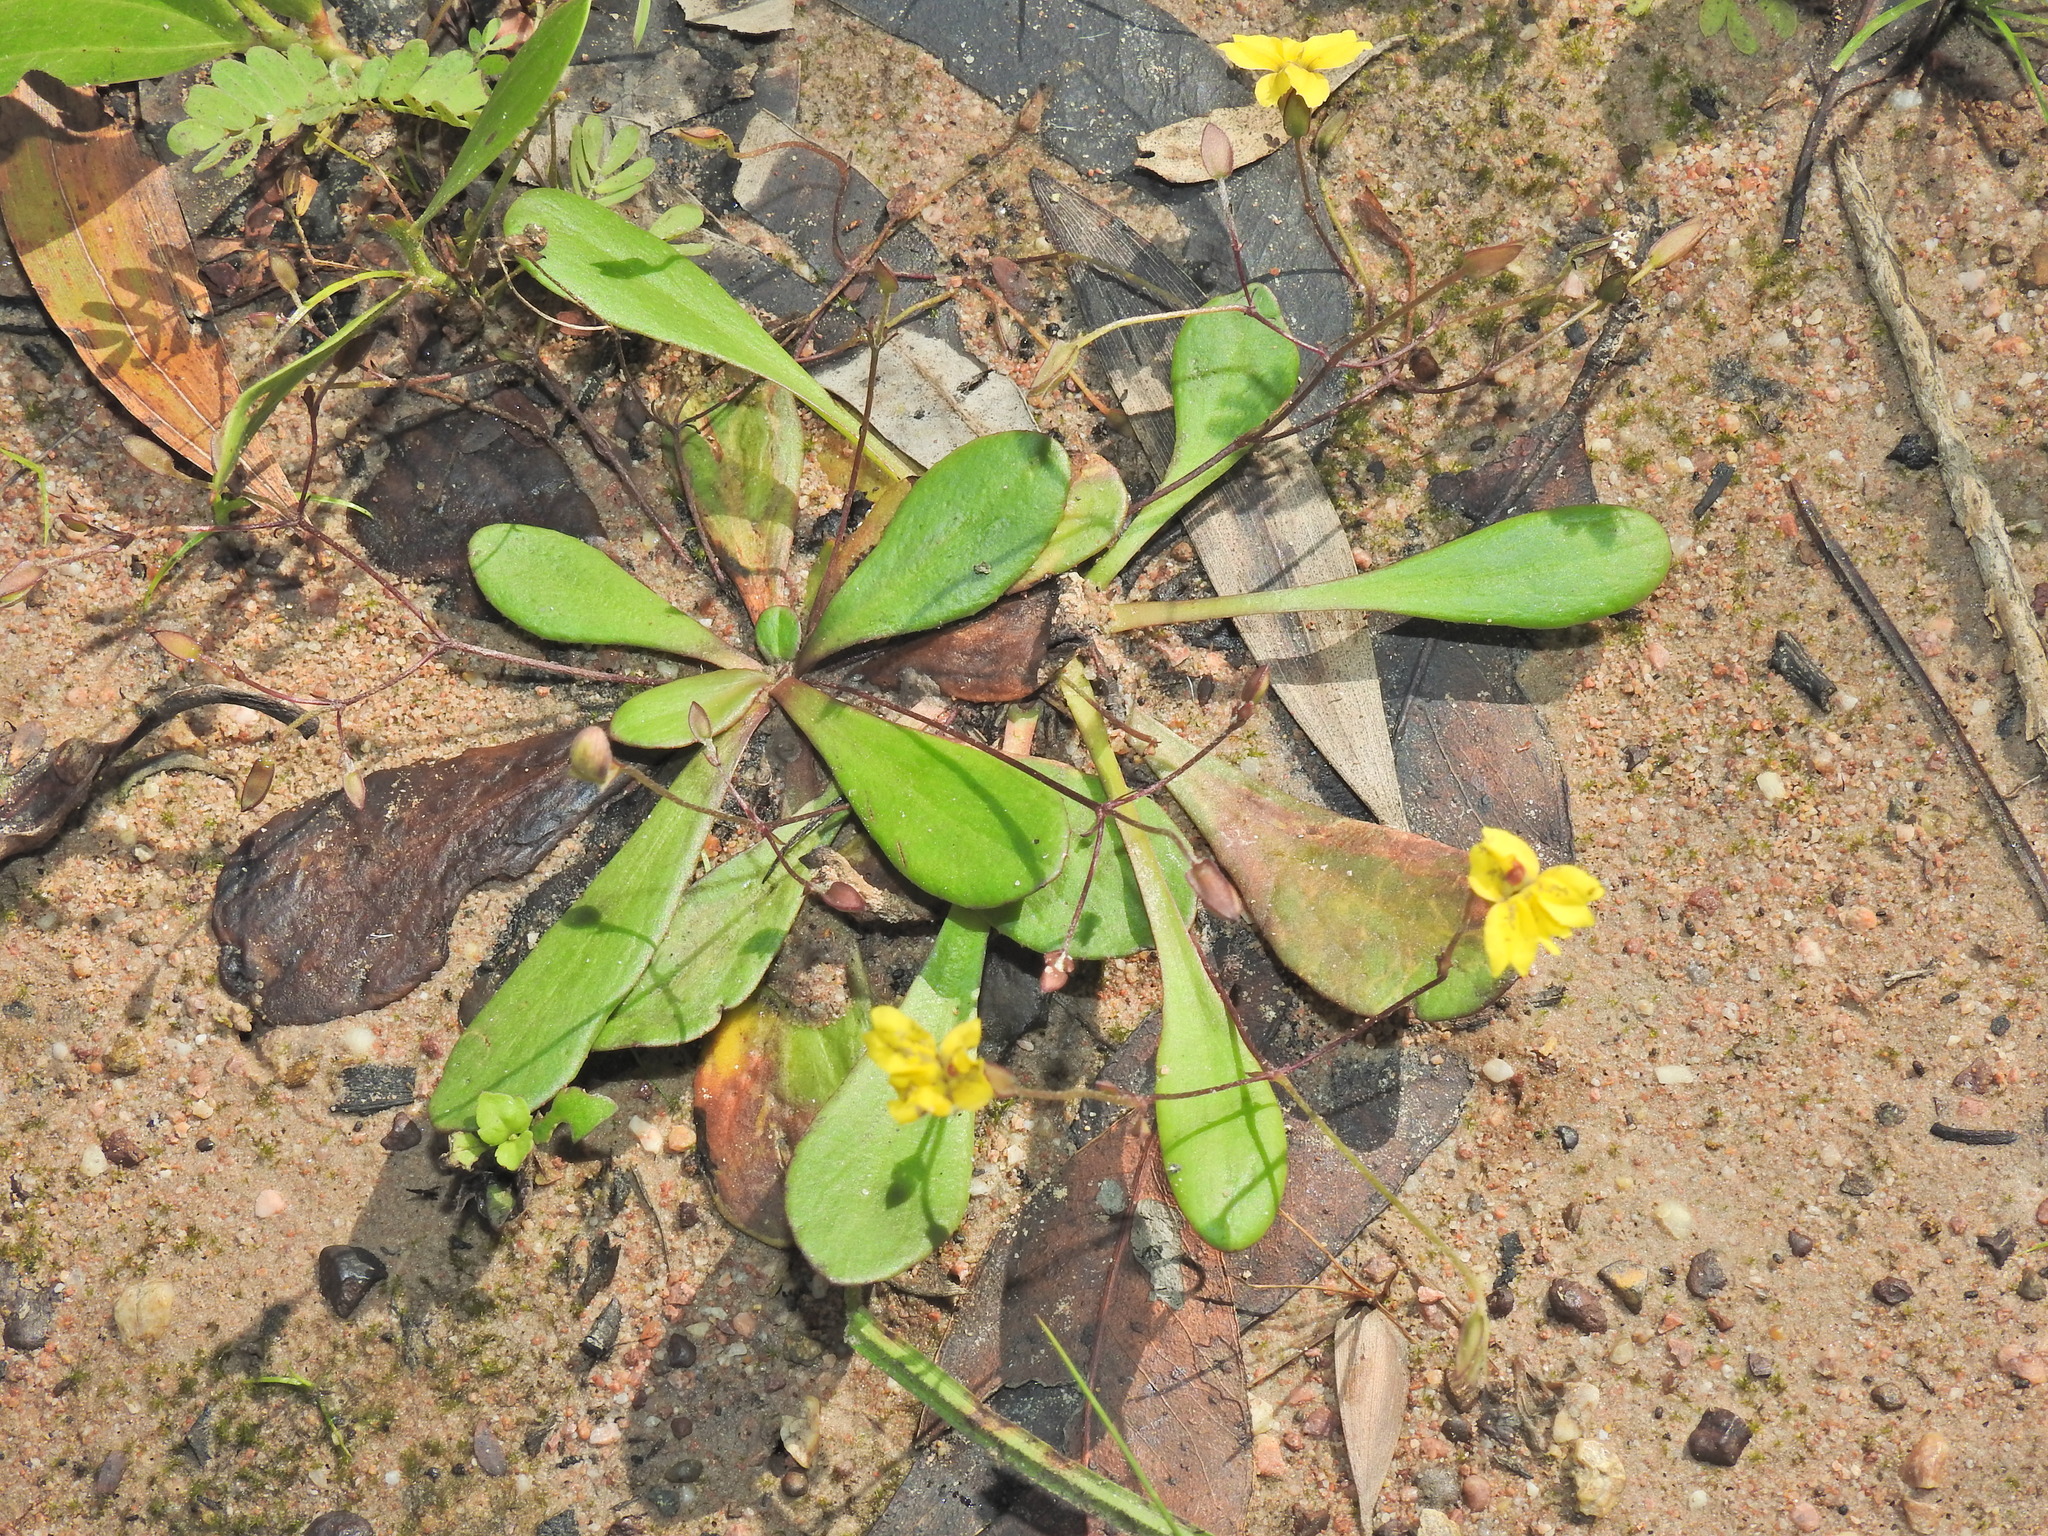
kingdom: Plantae
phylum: Tracheophyta
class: Magnoliopsida
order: Asterales
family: Goodeniaceae
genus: Goodenia
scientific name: Goodenia mystrophylla
